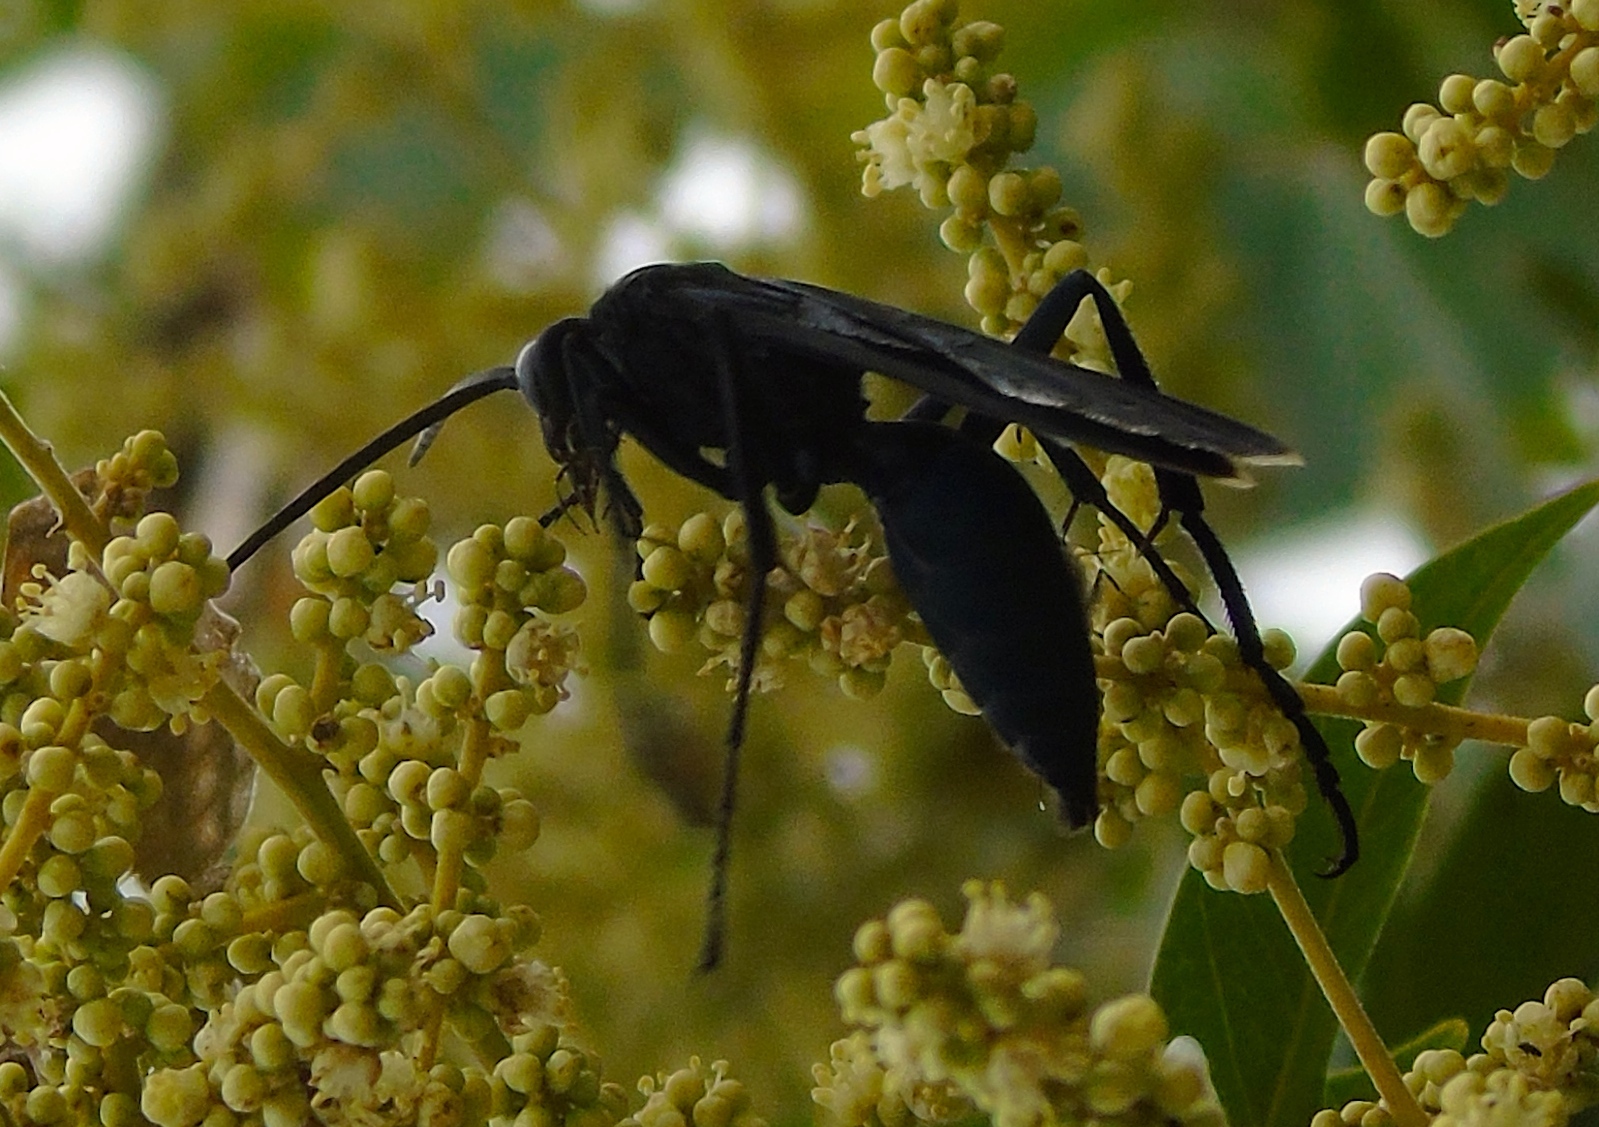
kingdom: Animalia
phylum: Arthropoda
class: Insecta
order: Hymenoptera
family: Pompilidae
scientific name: Pompilidae
